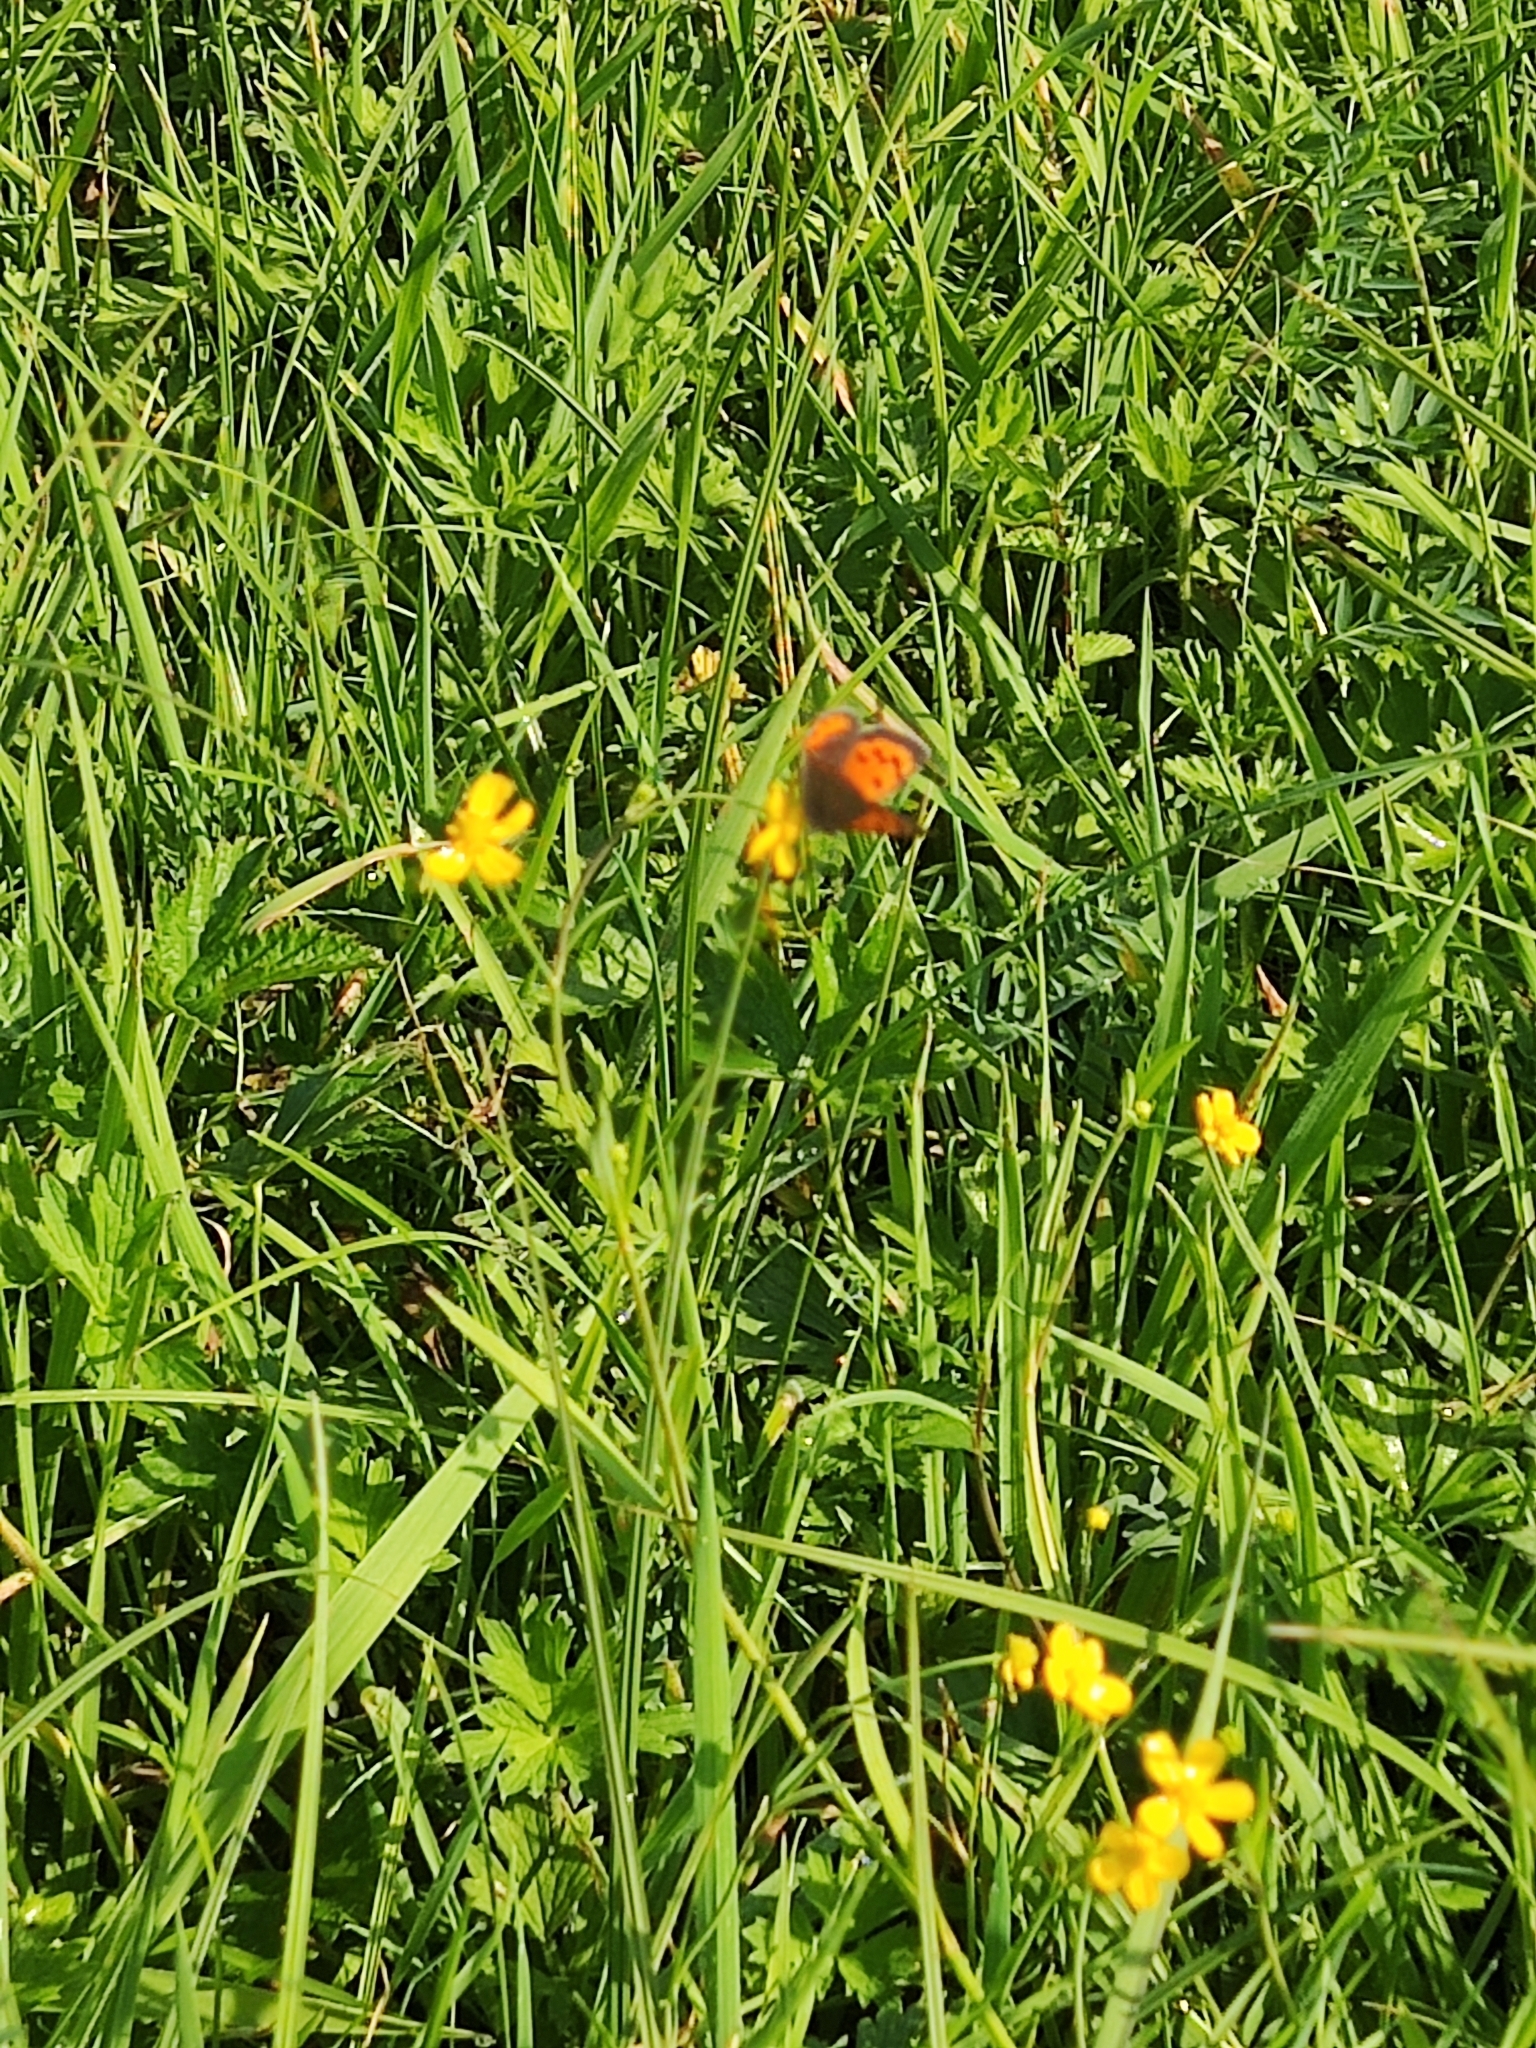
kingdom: Animalia
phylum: Arthropoda
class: Insecta
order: Lepidoptera
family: Lycaenidae
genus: Lycaena
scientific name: Lycaena phlaeas
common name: Small copper
